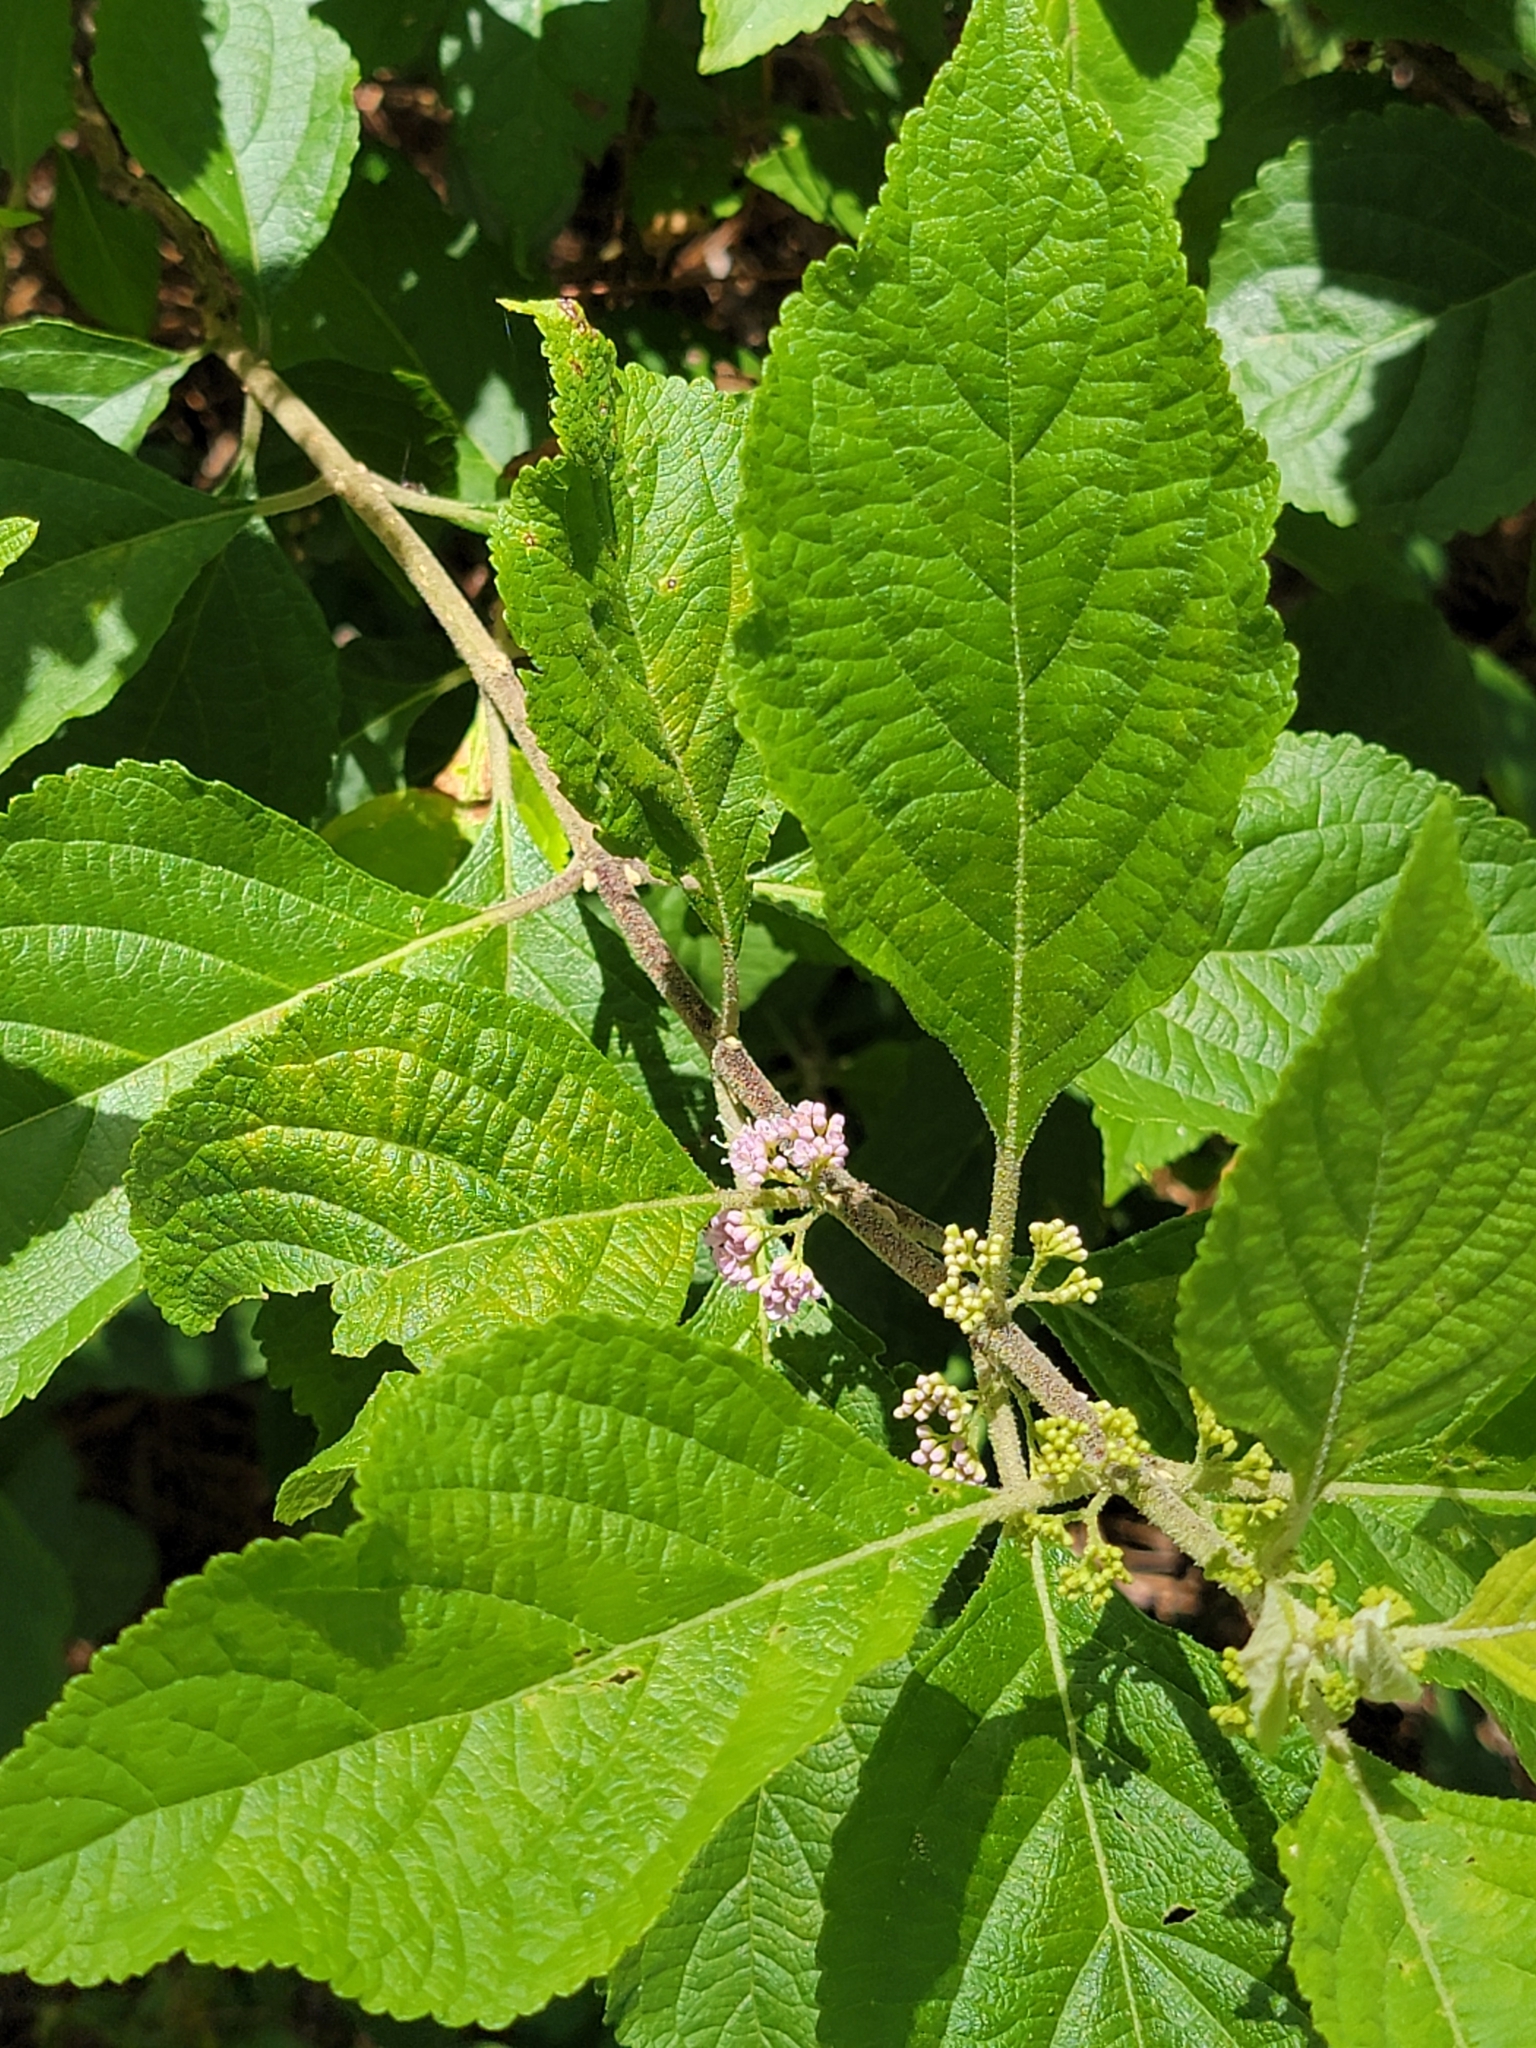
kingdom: Plantae
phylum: Tracheophyta
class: Magnoliopsida
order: Lamiales
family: Lamiaceae
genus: Callicarpa
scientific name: Callicarpa americana
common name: American beautyberry
